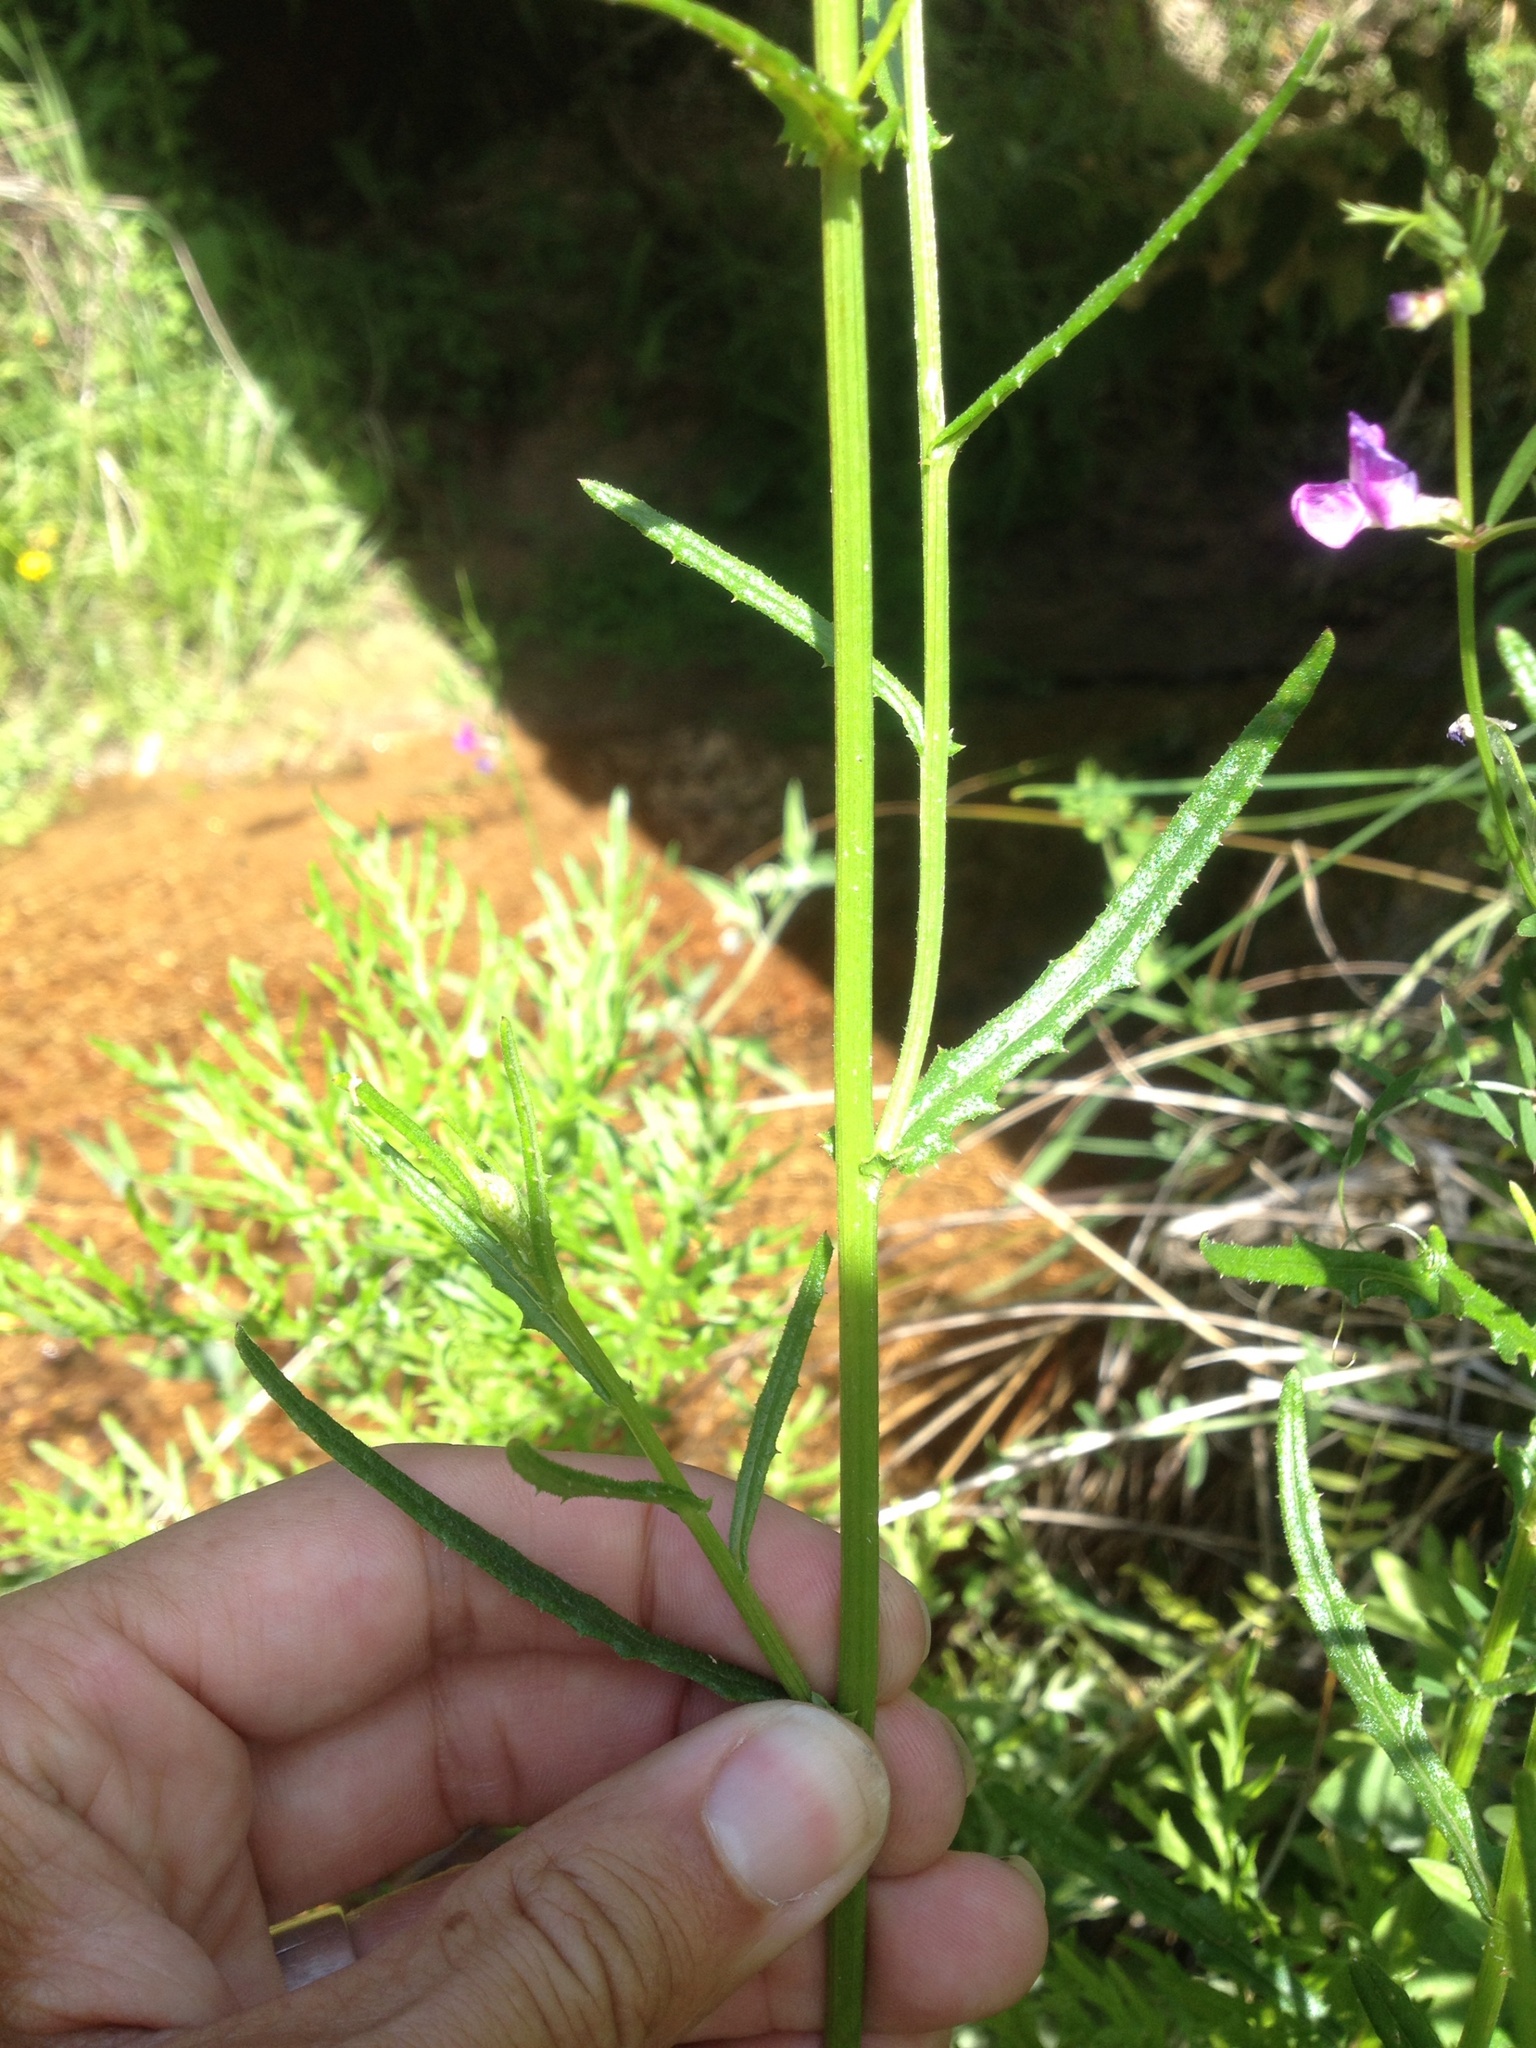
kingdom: Plantae
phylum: Tracheophyta
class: Magnoliopsida
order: Asterales
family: Asteraceae
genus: Senecio
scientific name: Senecio hispidulus
